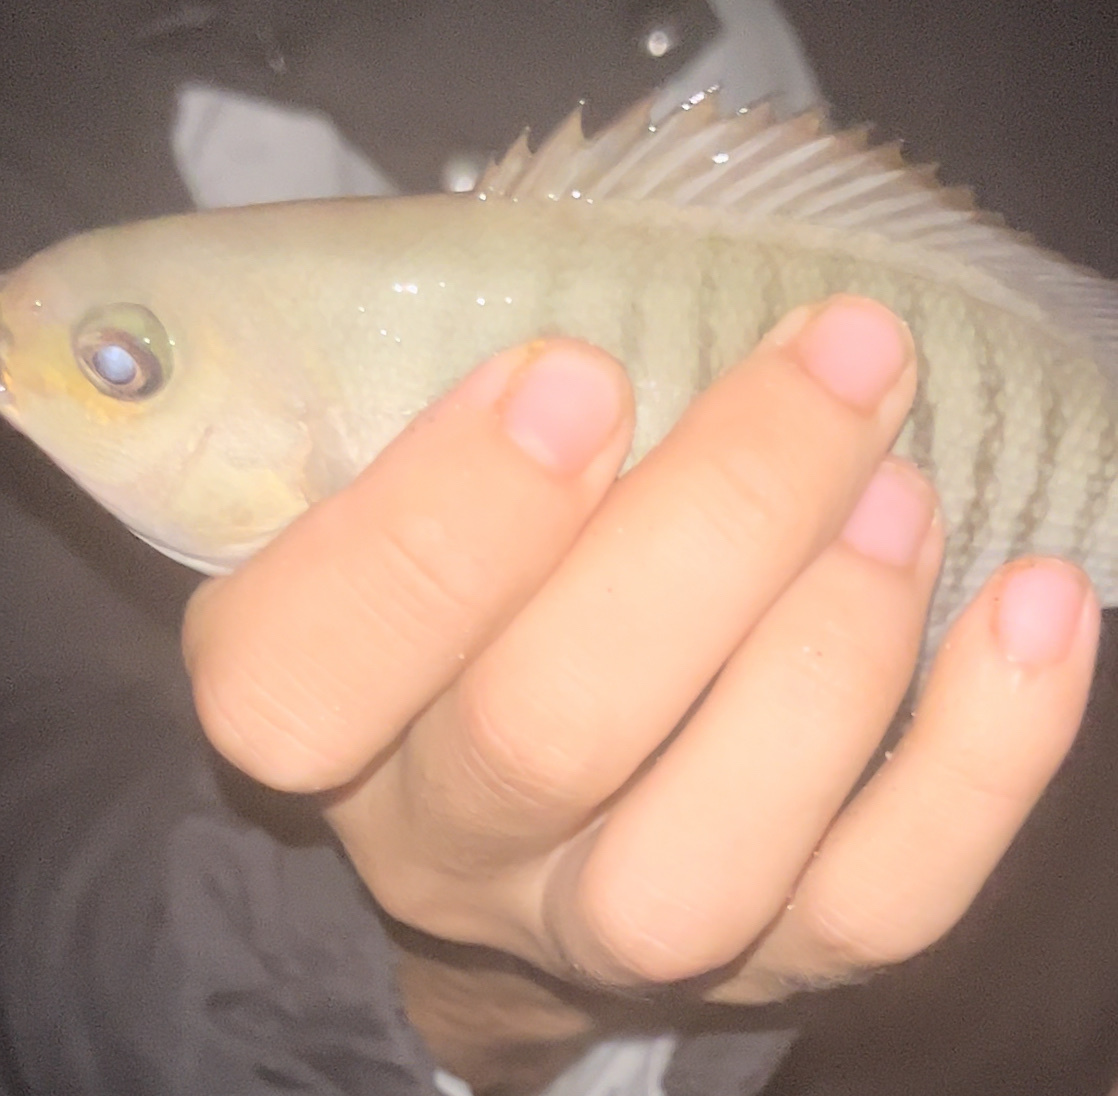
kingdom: Animalia
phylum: Chordata
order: Perciformes
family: Kyphosidae
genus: Girella
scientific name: Girella tricuspidata
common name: Parore
